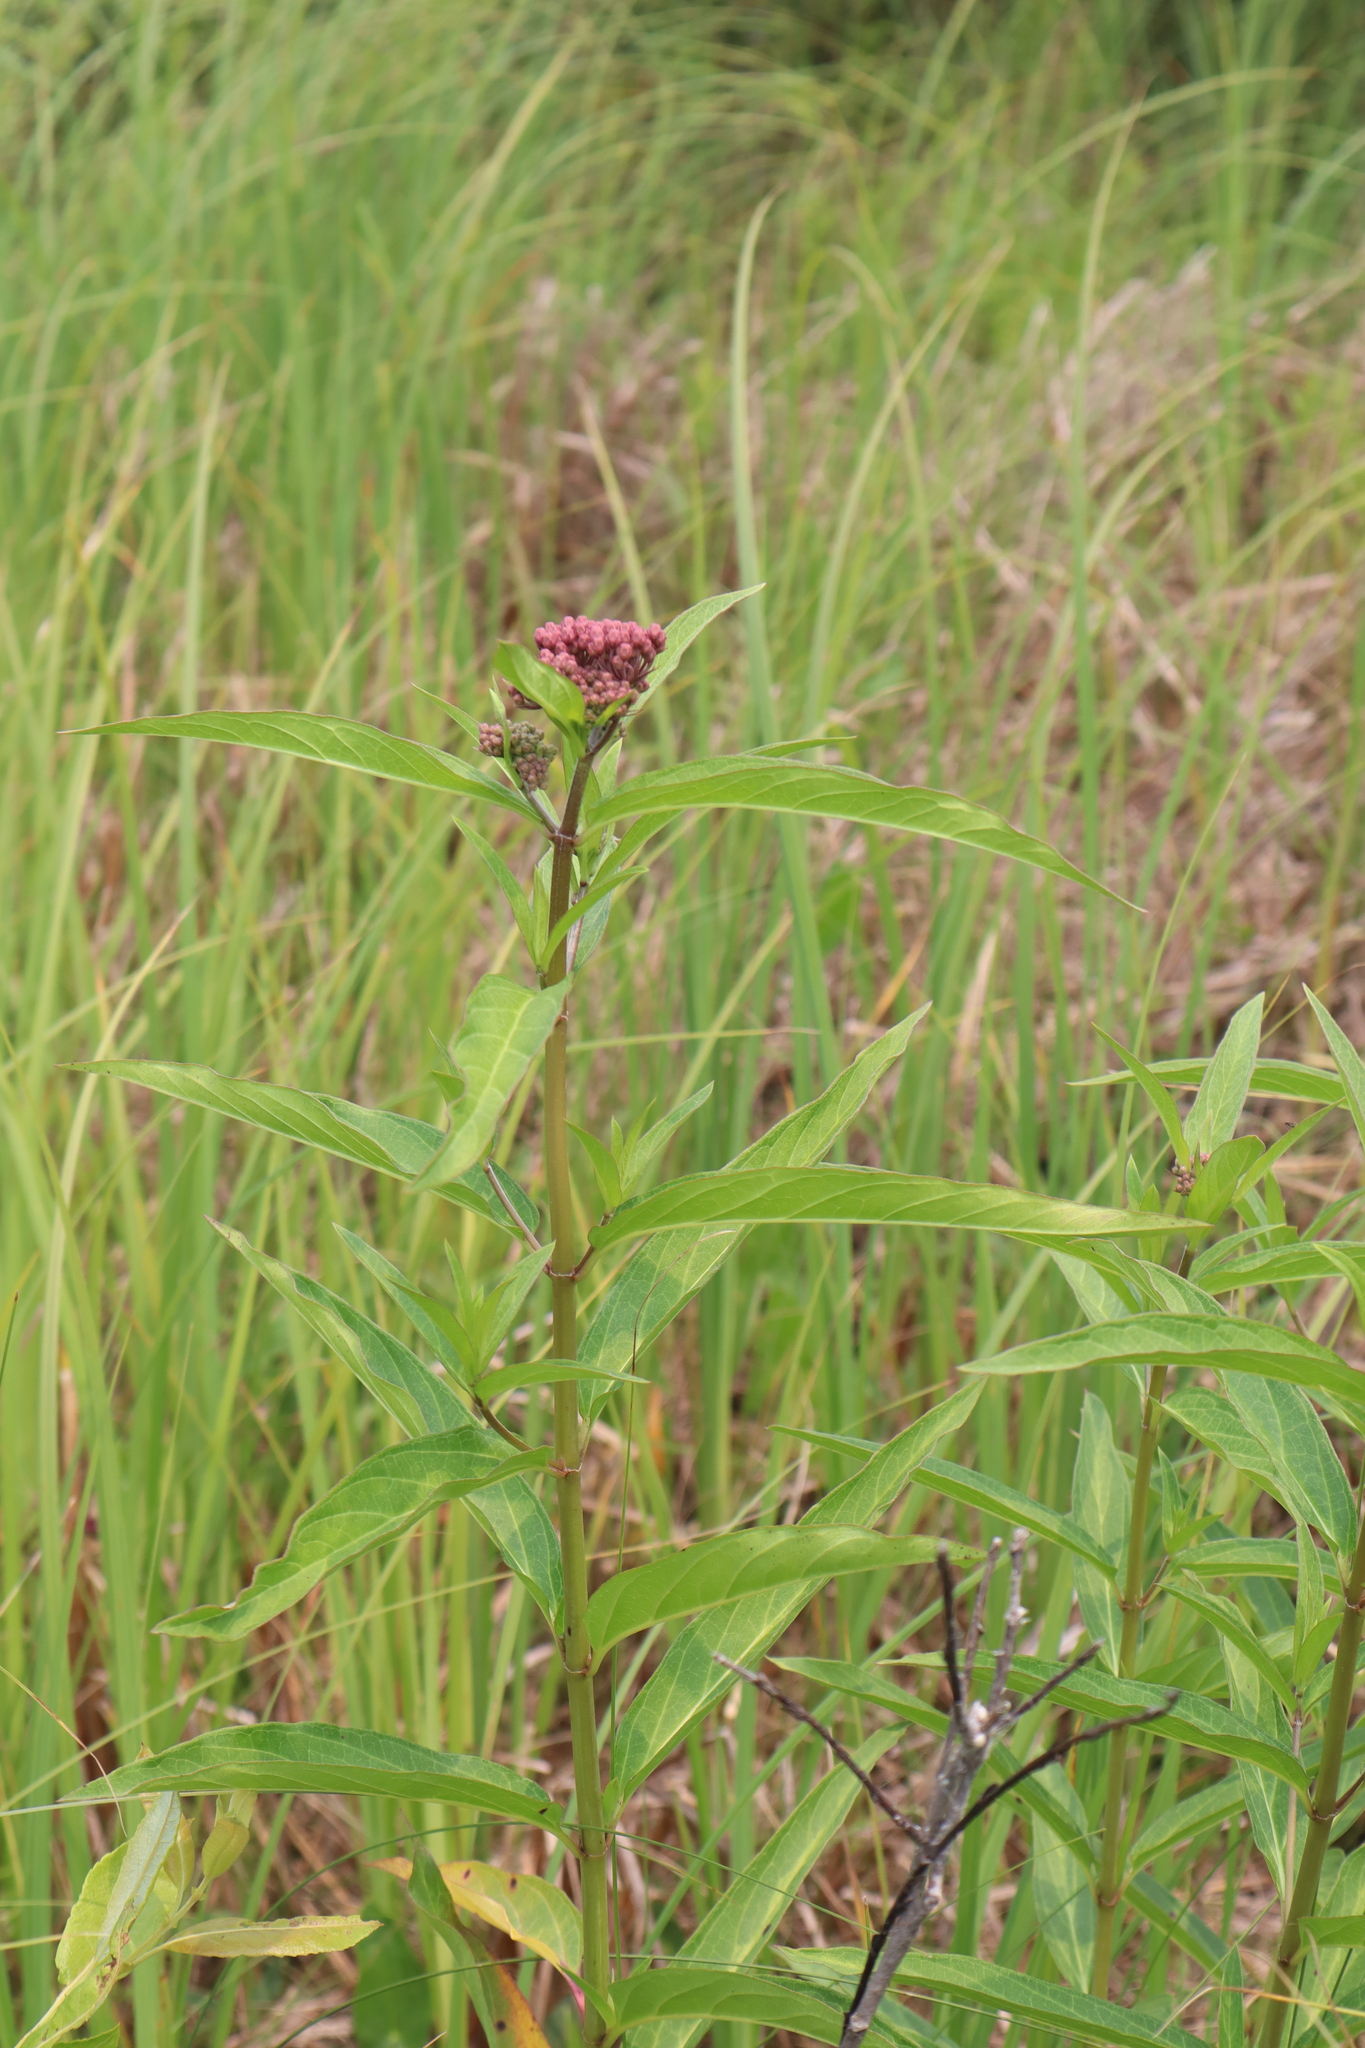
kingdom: Plantae
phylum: Tracheophyta
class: Magnoliopsida
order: Gentianales
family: Apocynaceae
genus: Asclepias
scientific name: Asclepias incarnata
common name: Swamp milkweed
